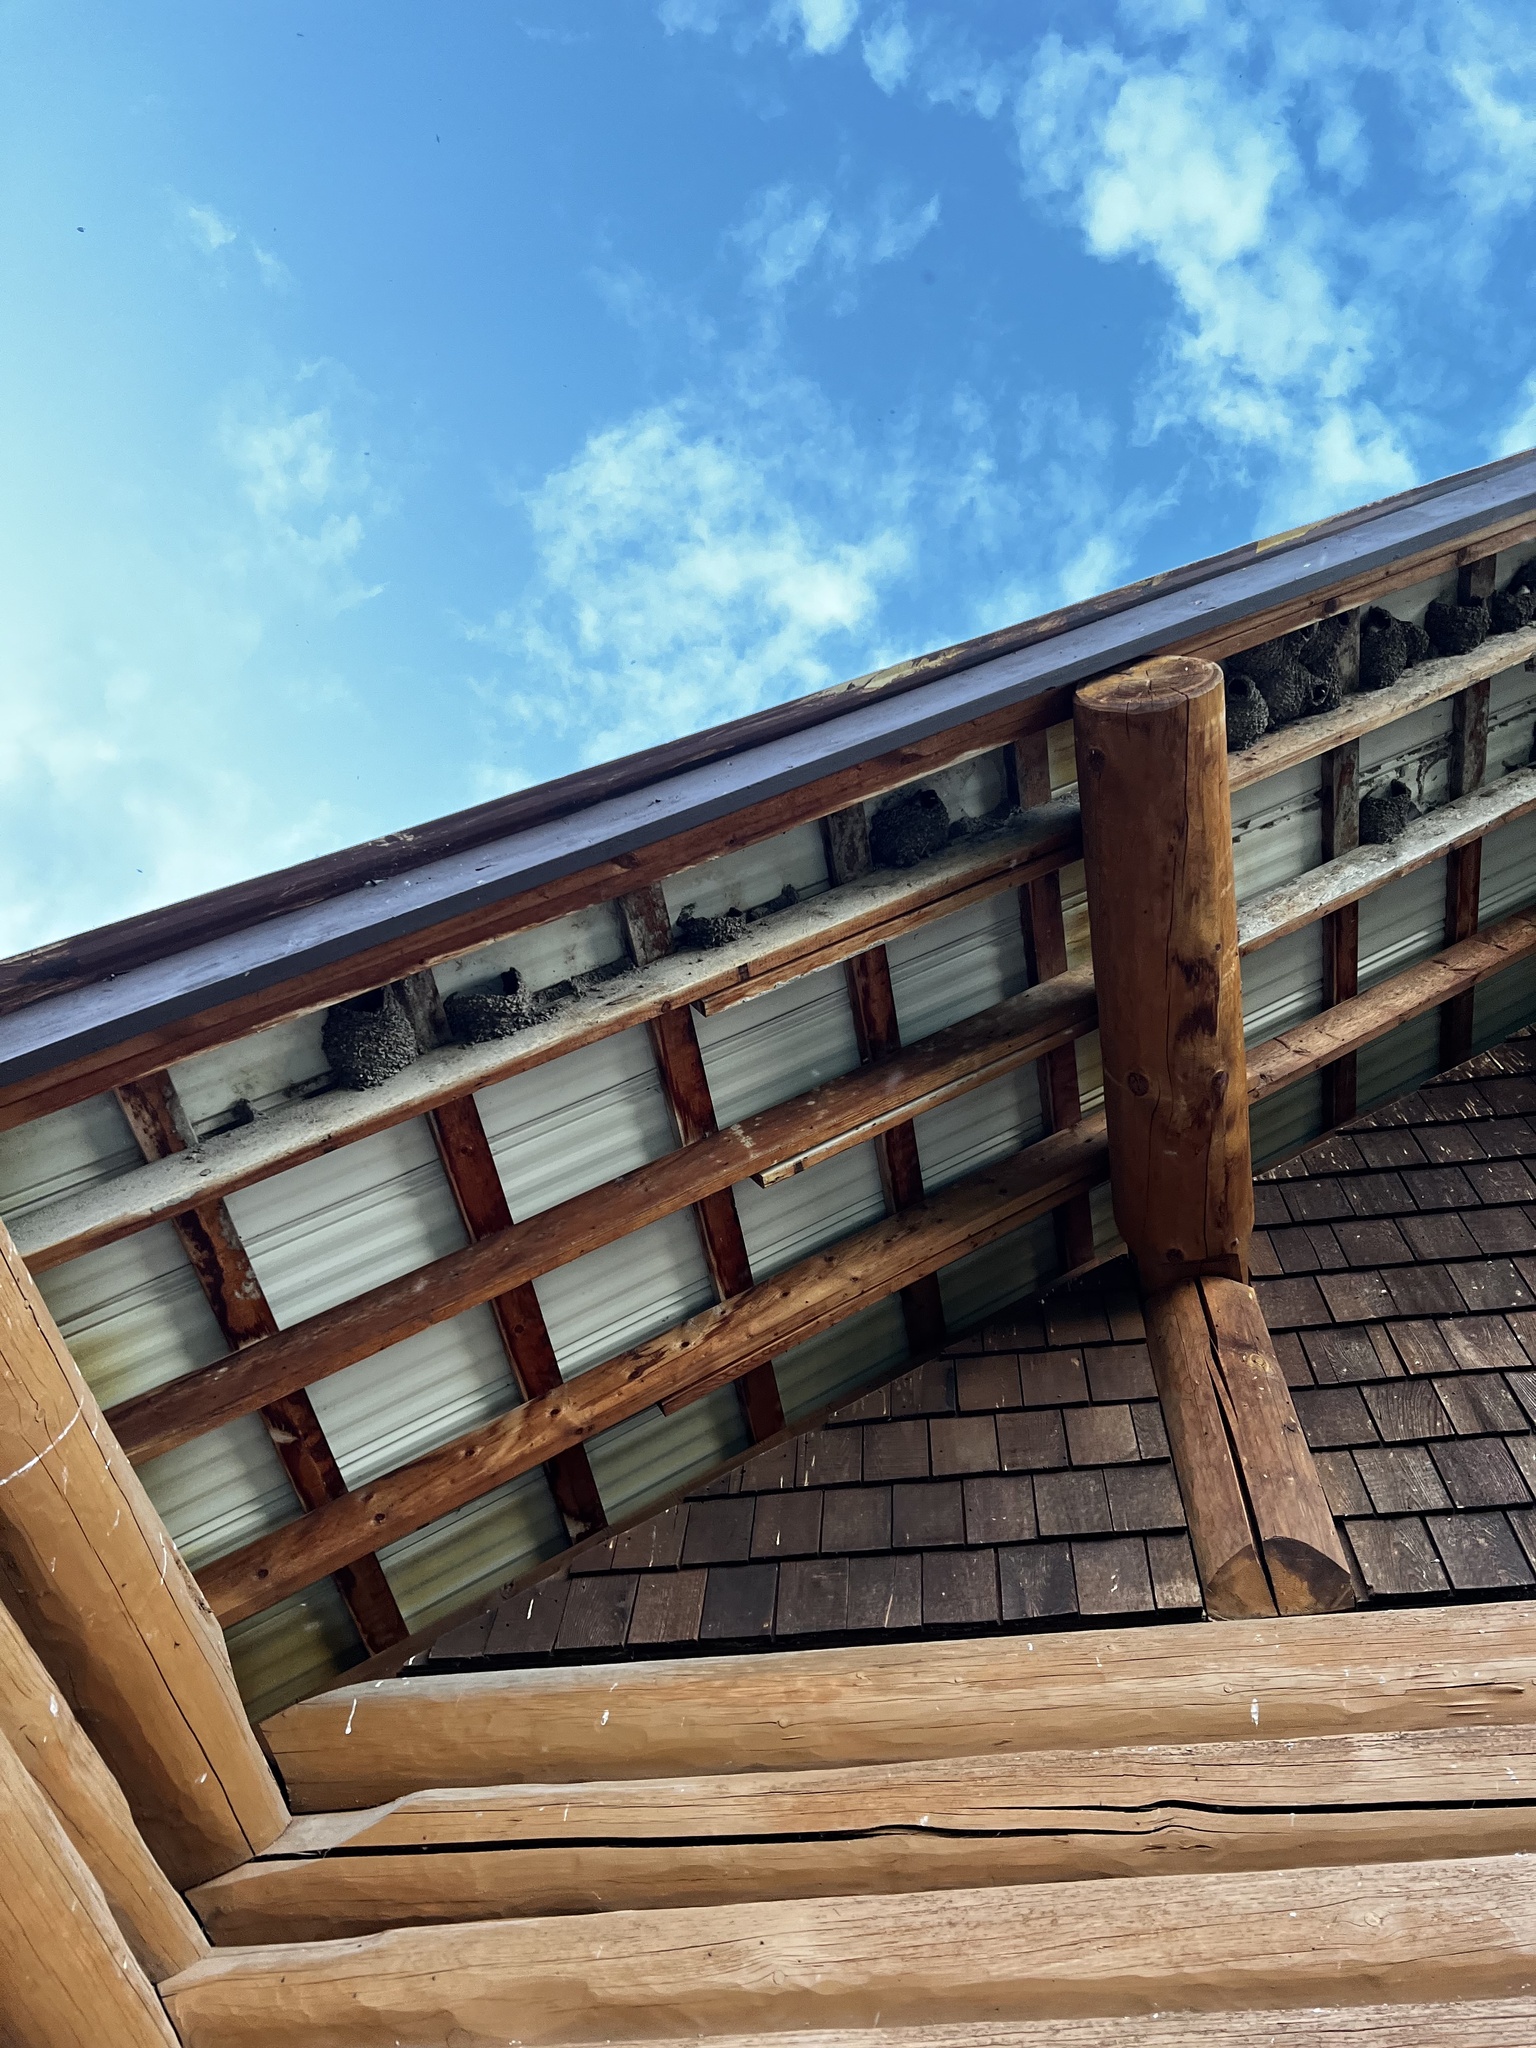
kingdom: Animalia
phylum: Chordata
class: Aves
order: Passeriformes
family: Hirundinidae
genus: Petrochelidon
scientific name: Petrochelidon pyrrhonota
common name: American cliff swallow
